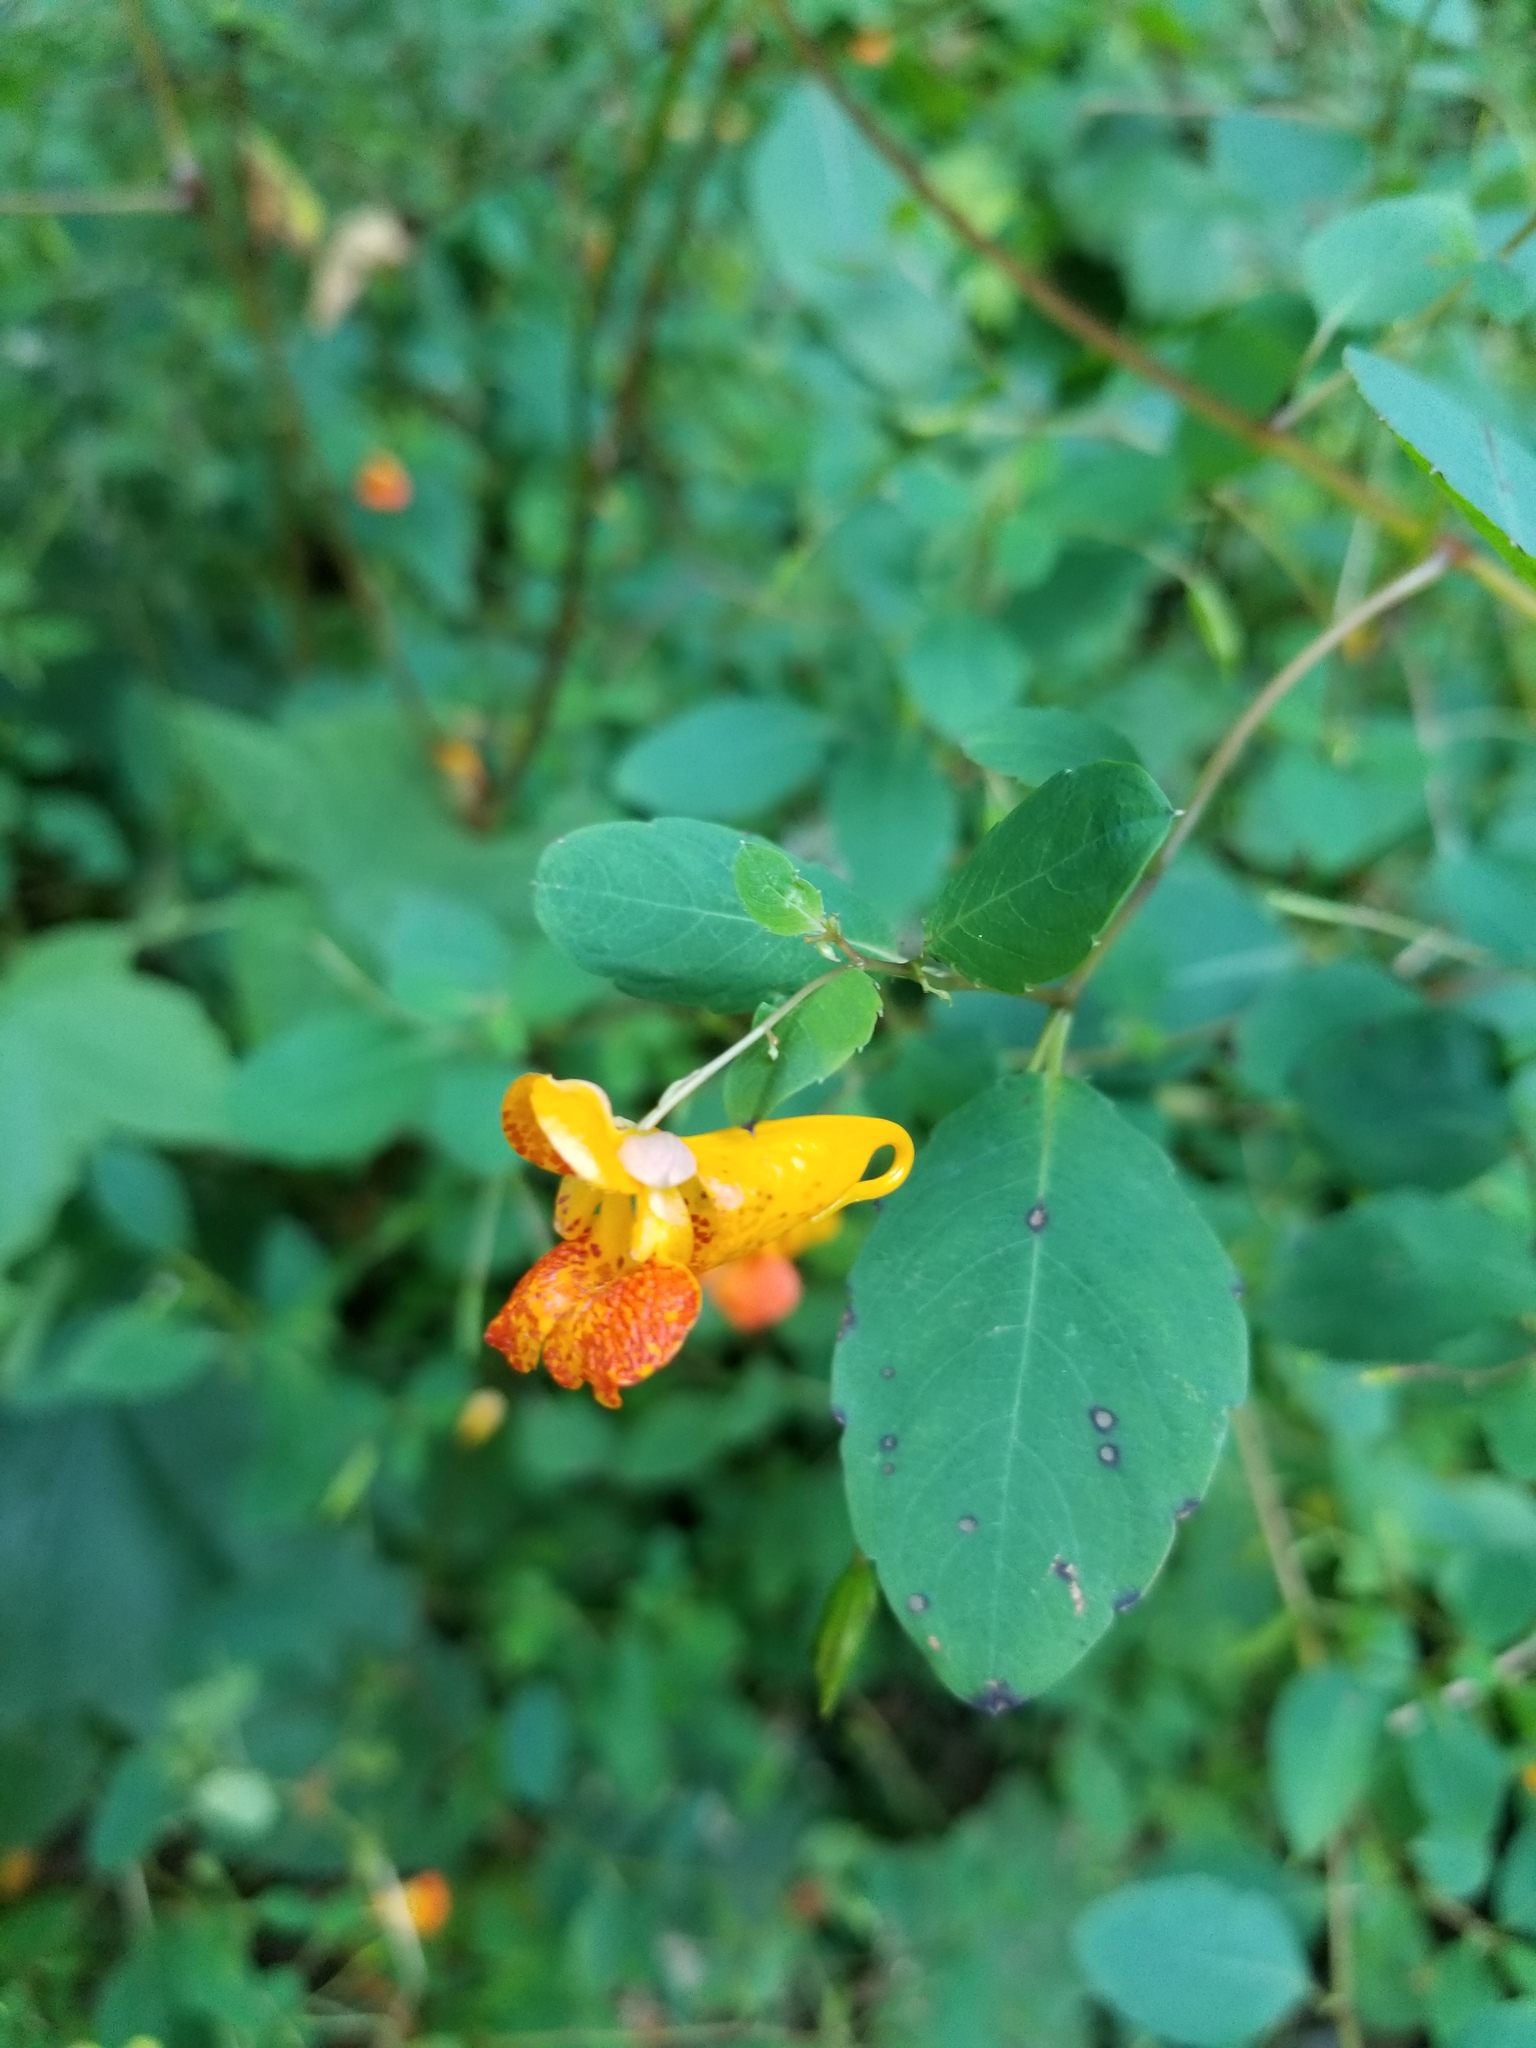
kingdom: Plantae
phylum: Tracheophyta
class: Magnoliopsida
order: Ericales
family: Balsaminaceae
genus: Impatiens
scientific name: Impatiens capensis
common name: Orange balsam
